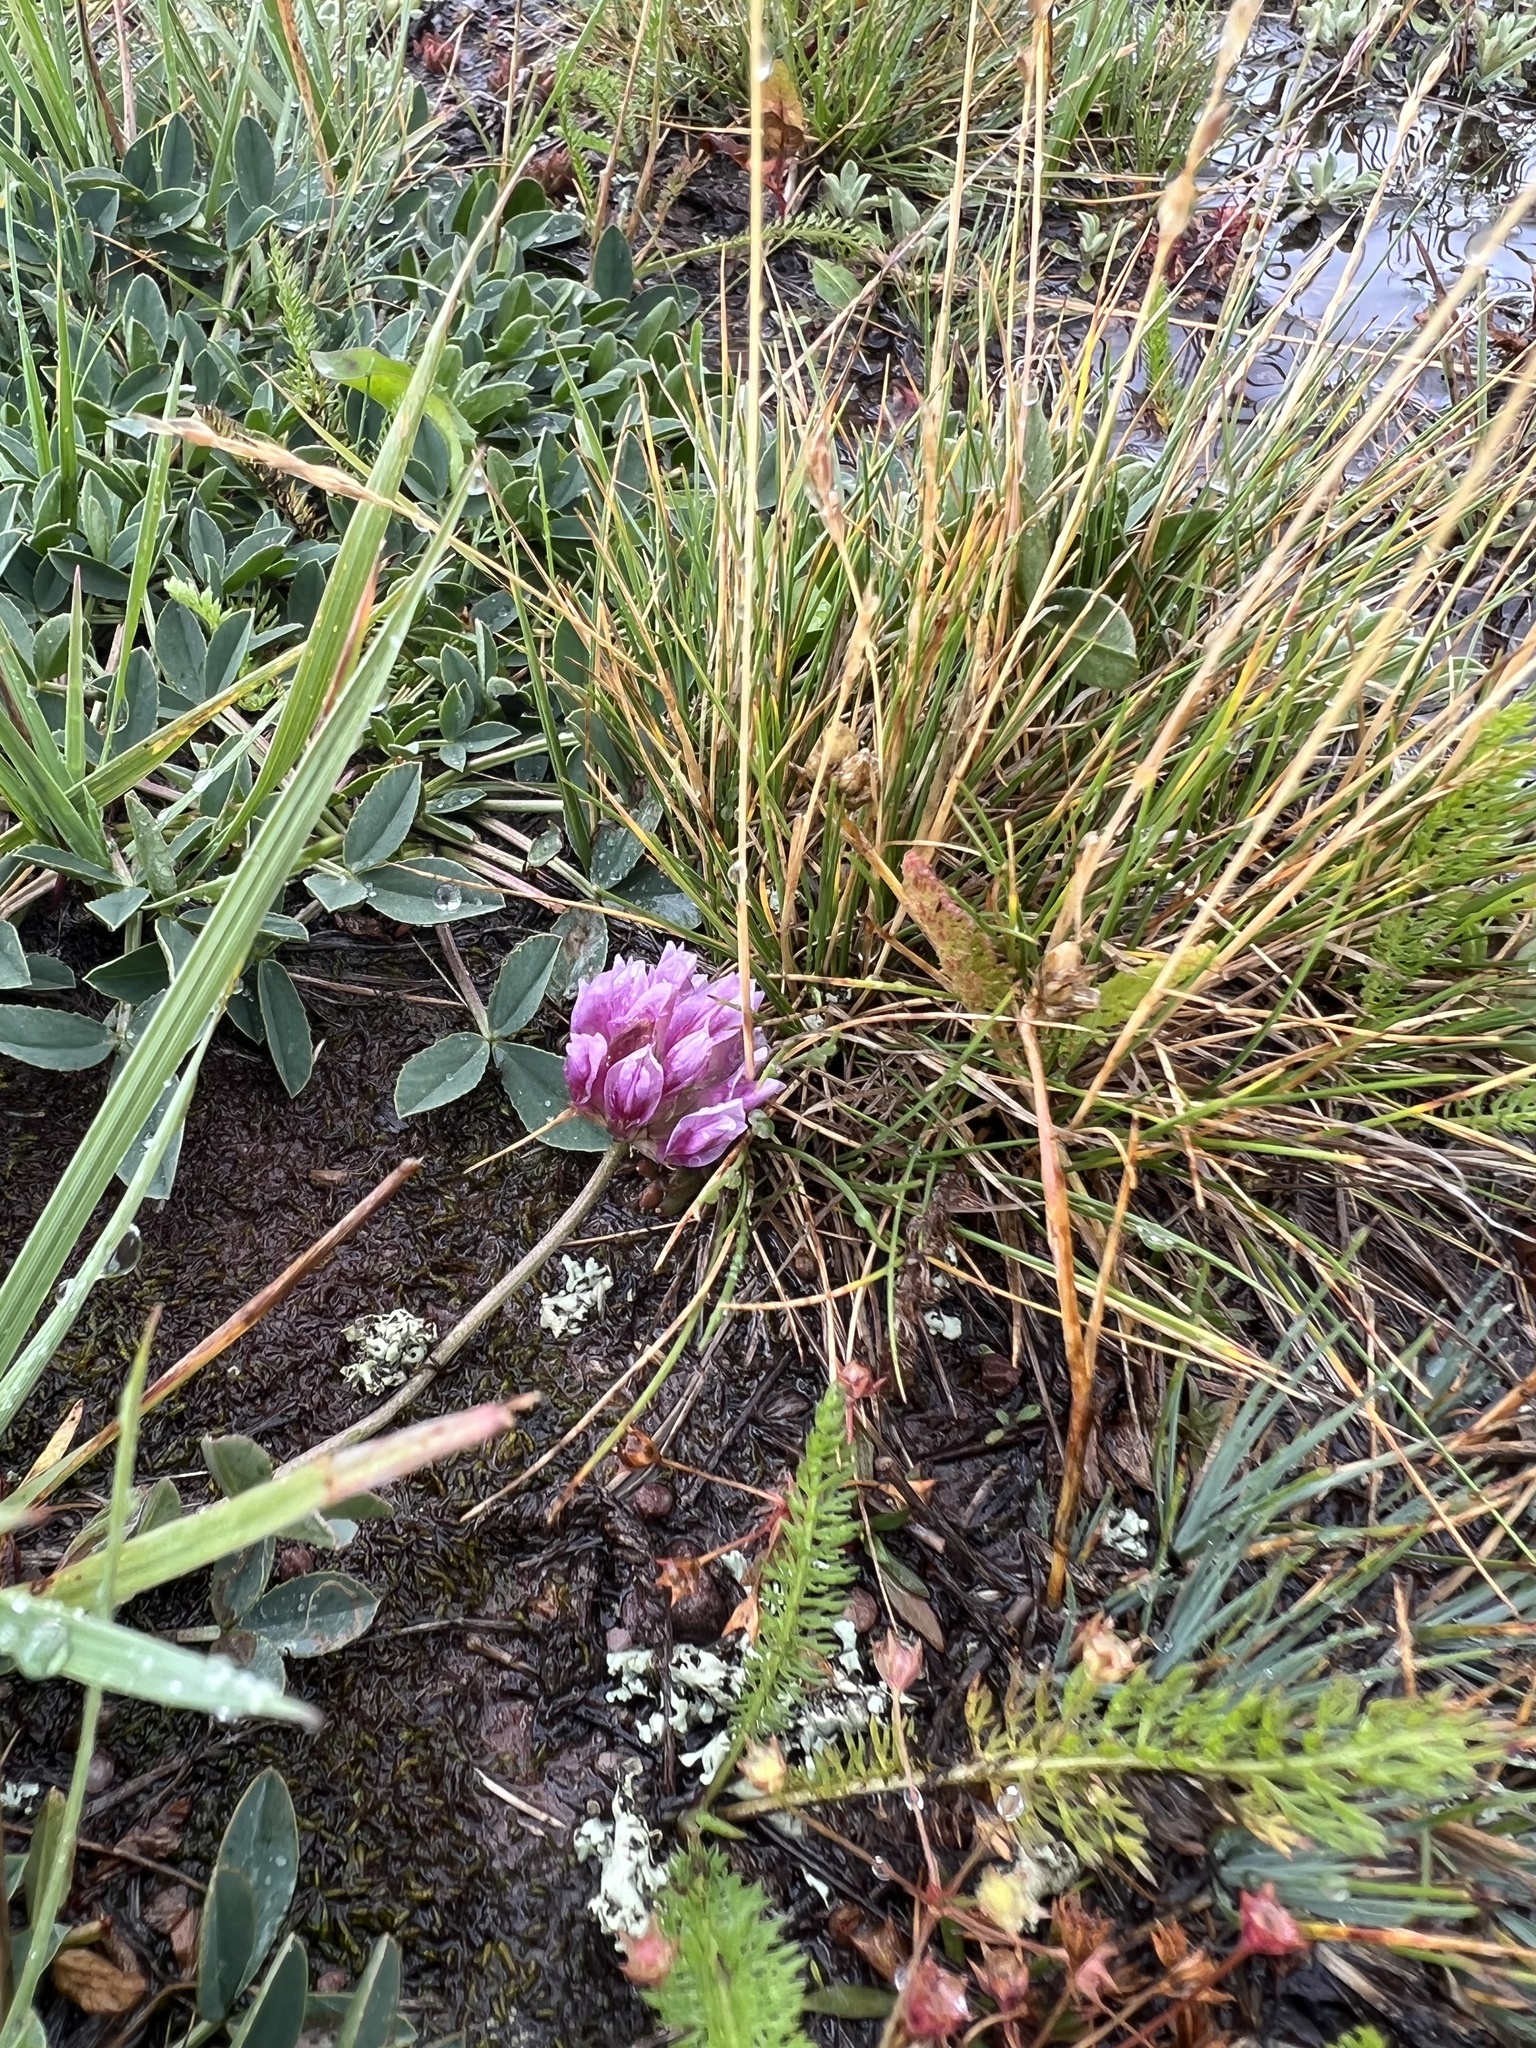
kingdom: Plantae
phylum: Tracheophyta
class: Magnoliopsida
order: Fabales
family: Fabaceae
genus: Trifolium
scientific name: Trifolium parryi
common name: Parry's clover
